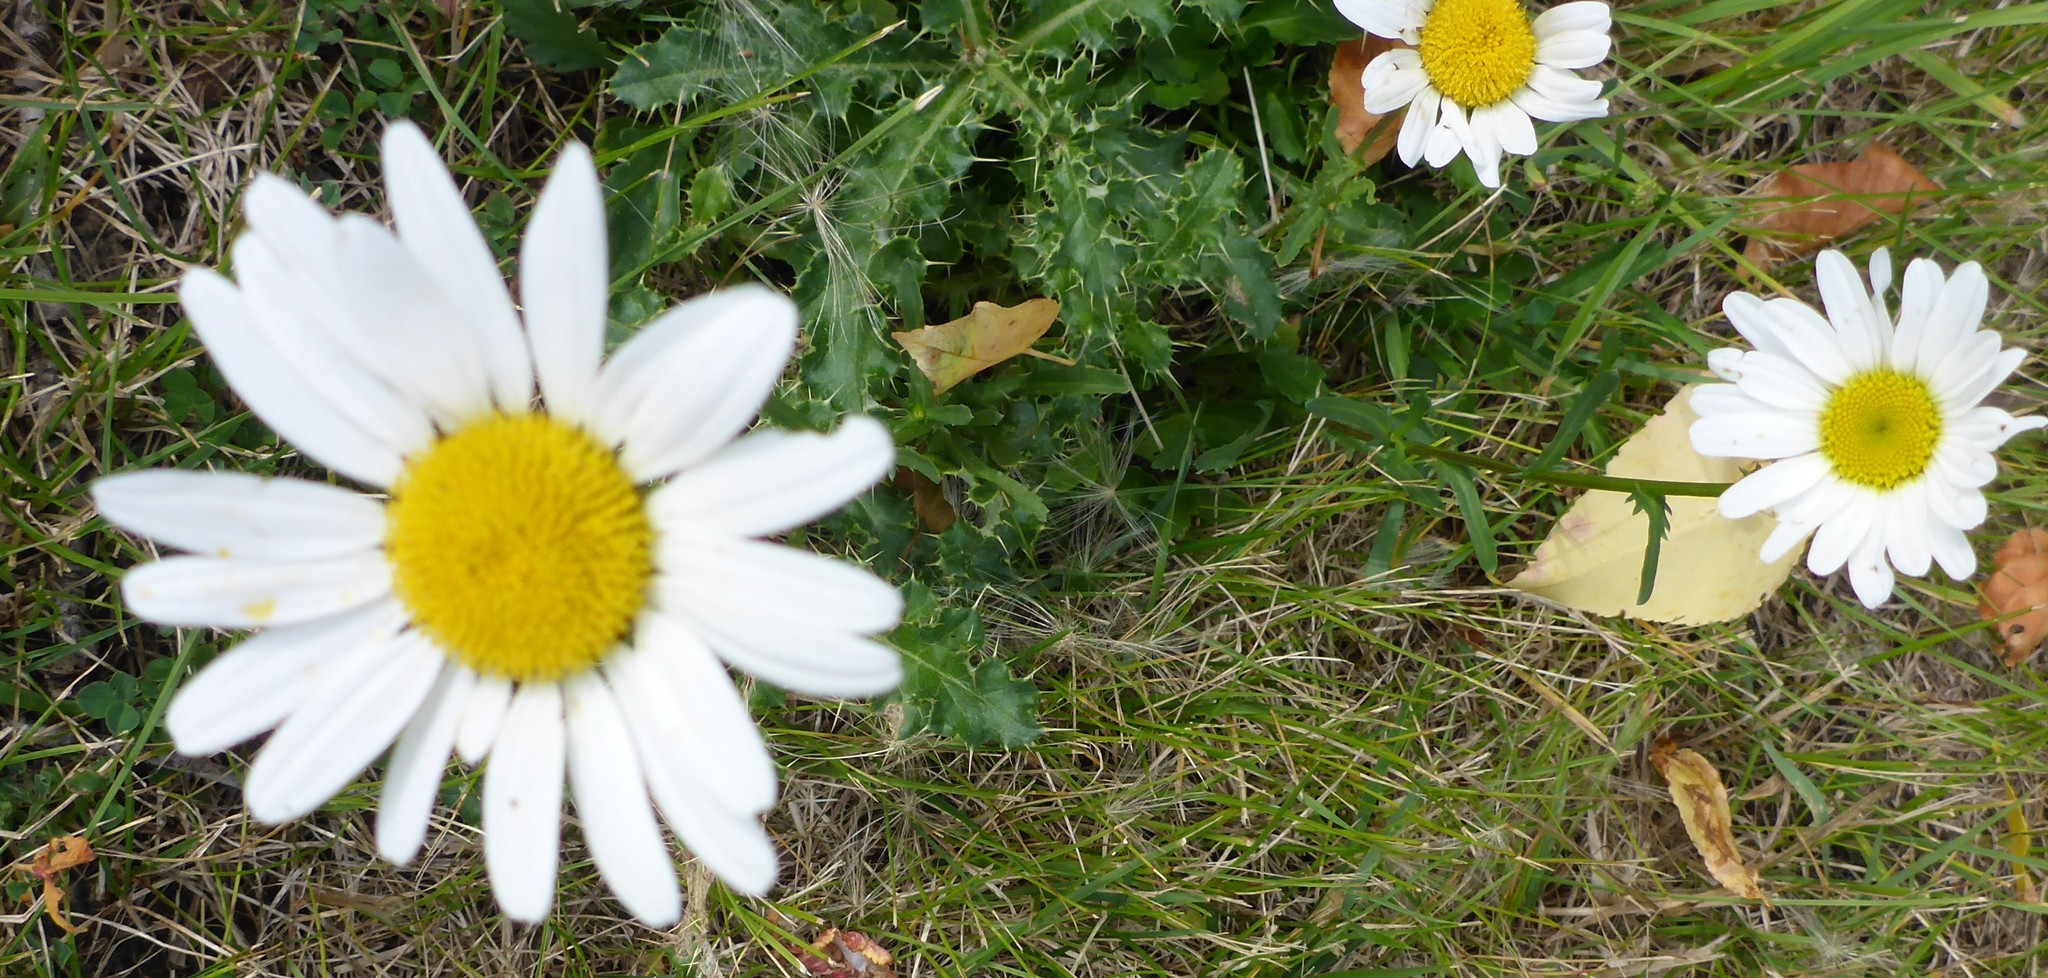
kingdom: Plantae
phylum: Tracheophyta
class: Magnoliopsida
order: Asterales
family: Asteraceae
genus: Leucanthemum
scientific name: Leucanthemum vulgare
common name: Oxeye daisy
